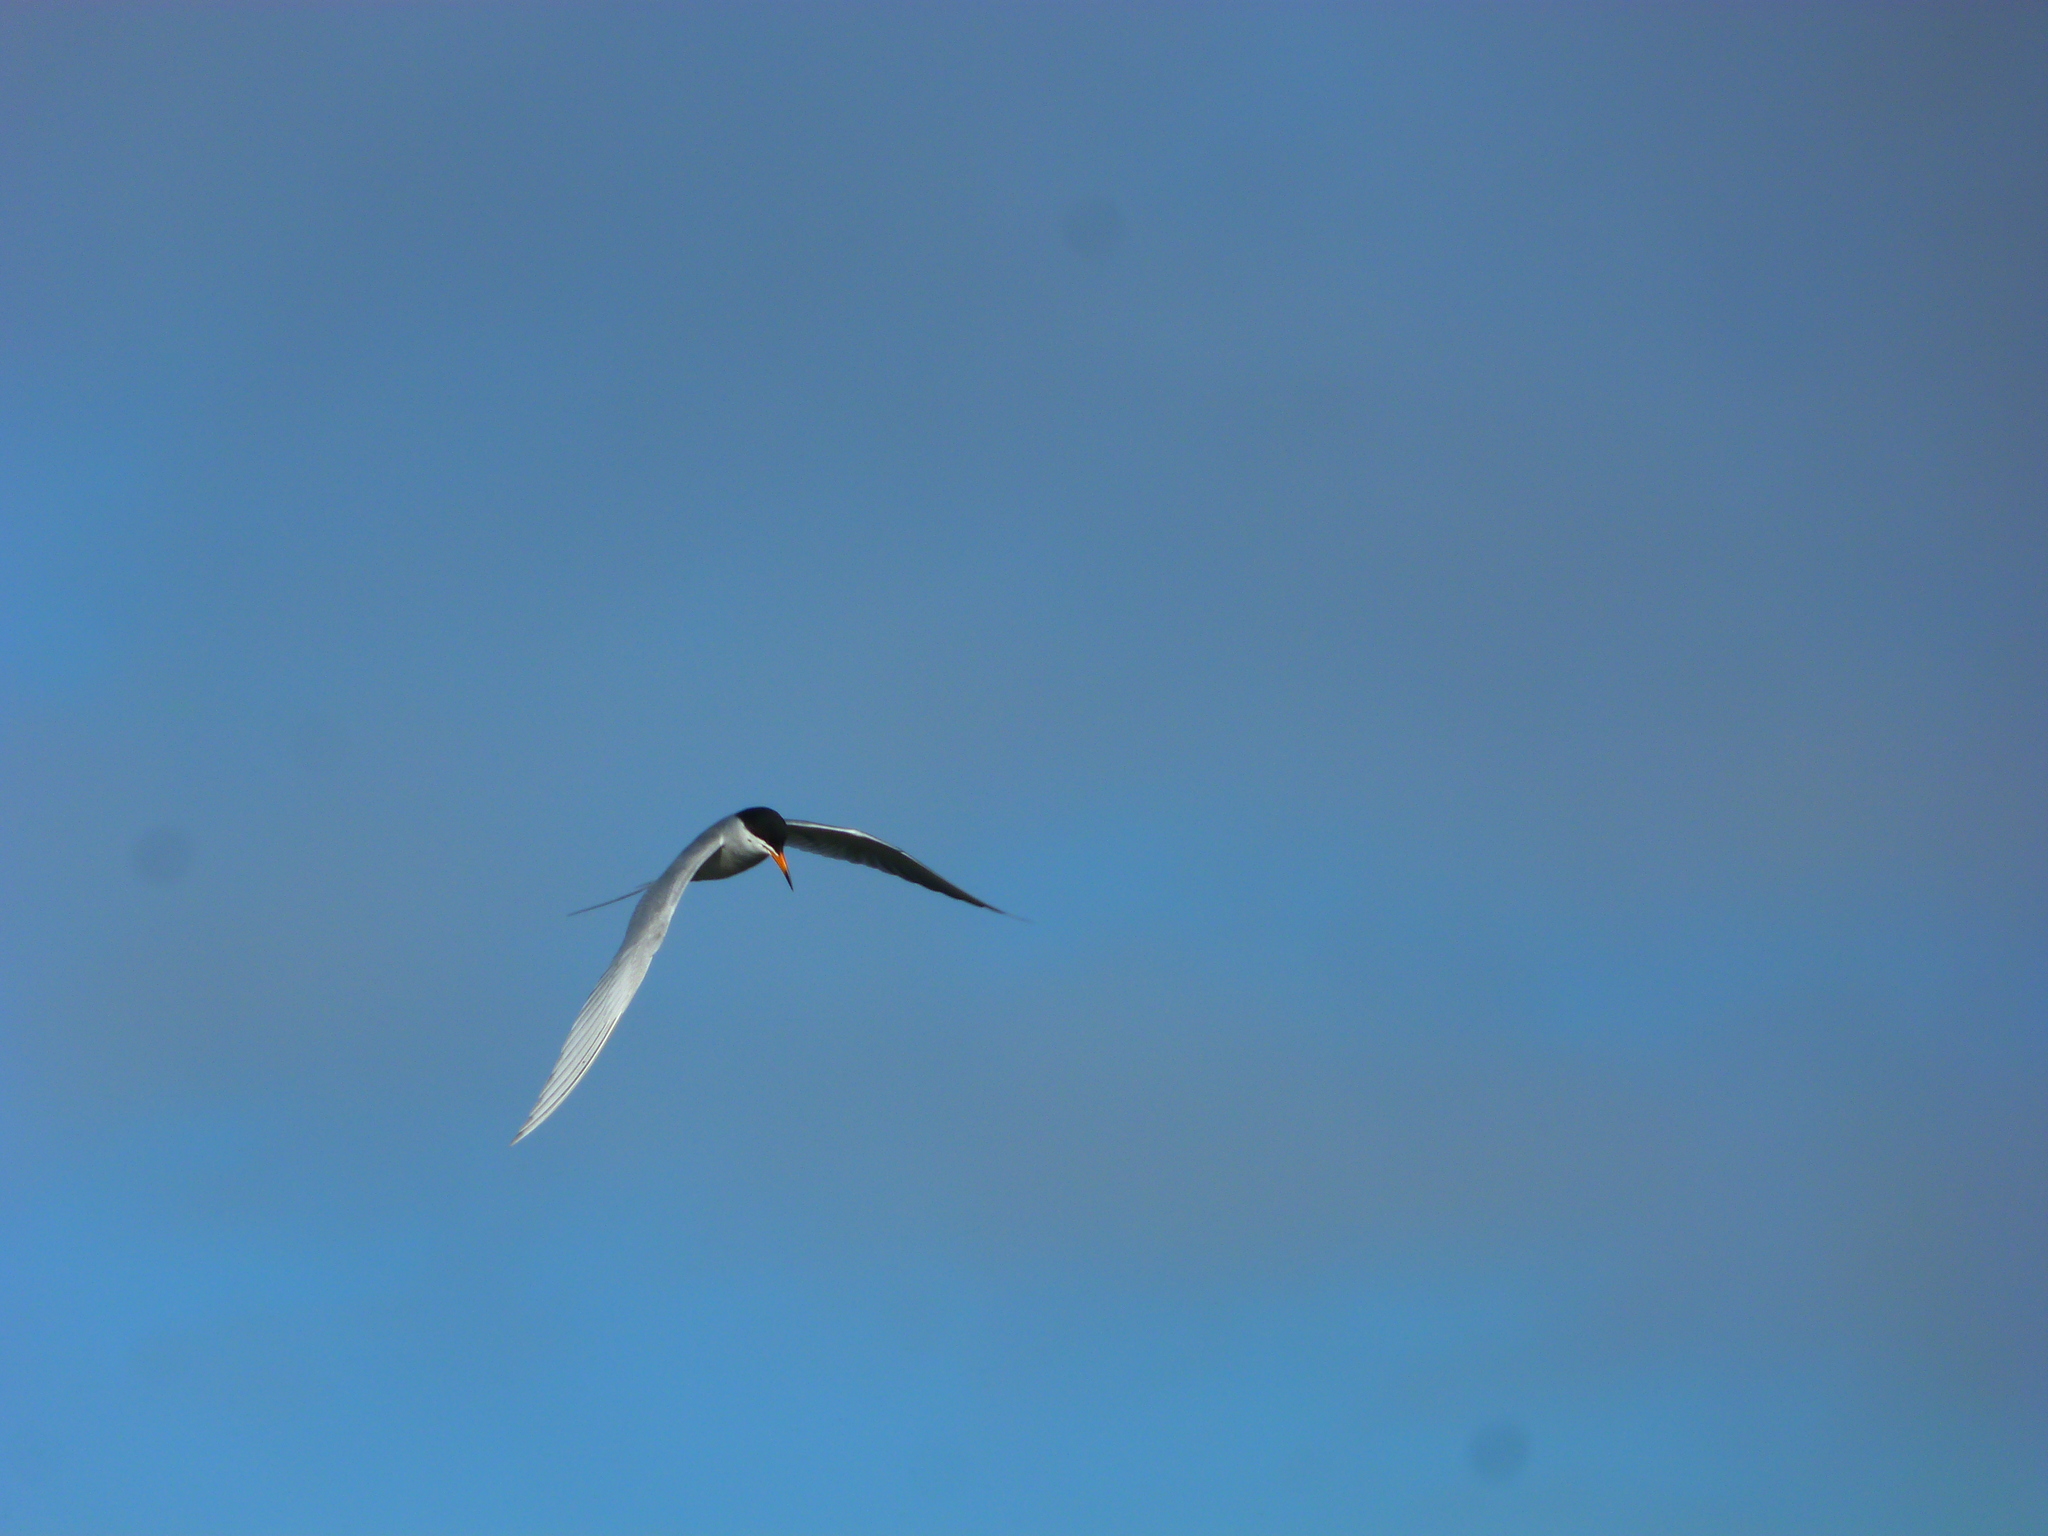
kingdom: Animalia
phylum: Chordata
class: Aves
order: Charadriiformes
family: Laridae
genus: Sterna
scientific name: Sterna forsteri
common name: Forster's tern
